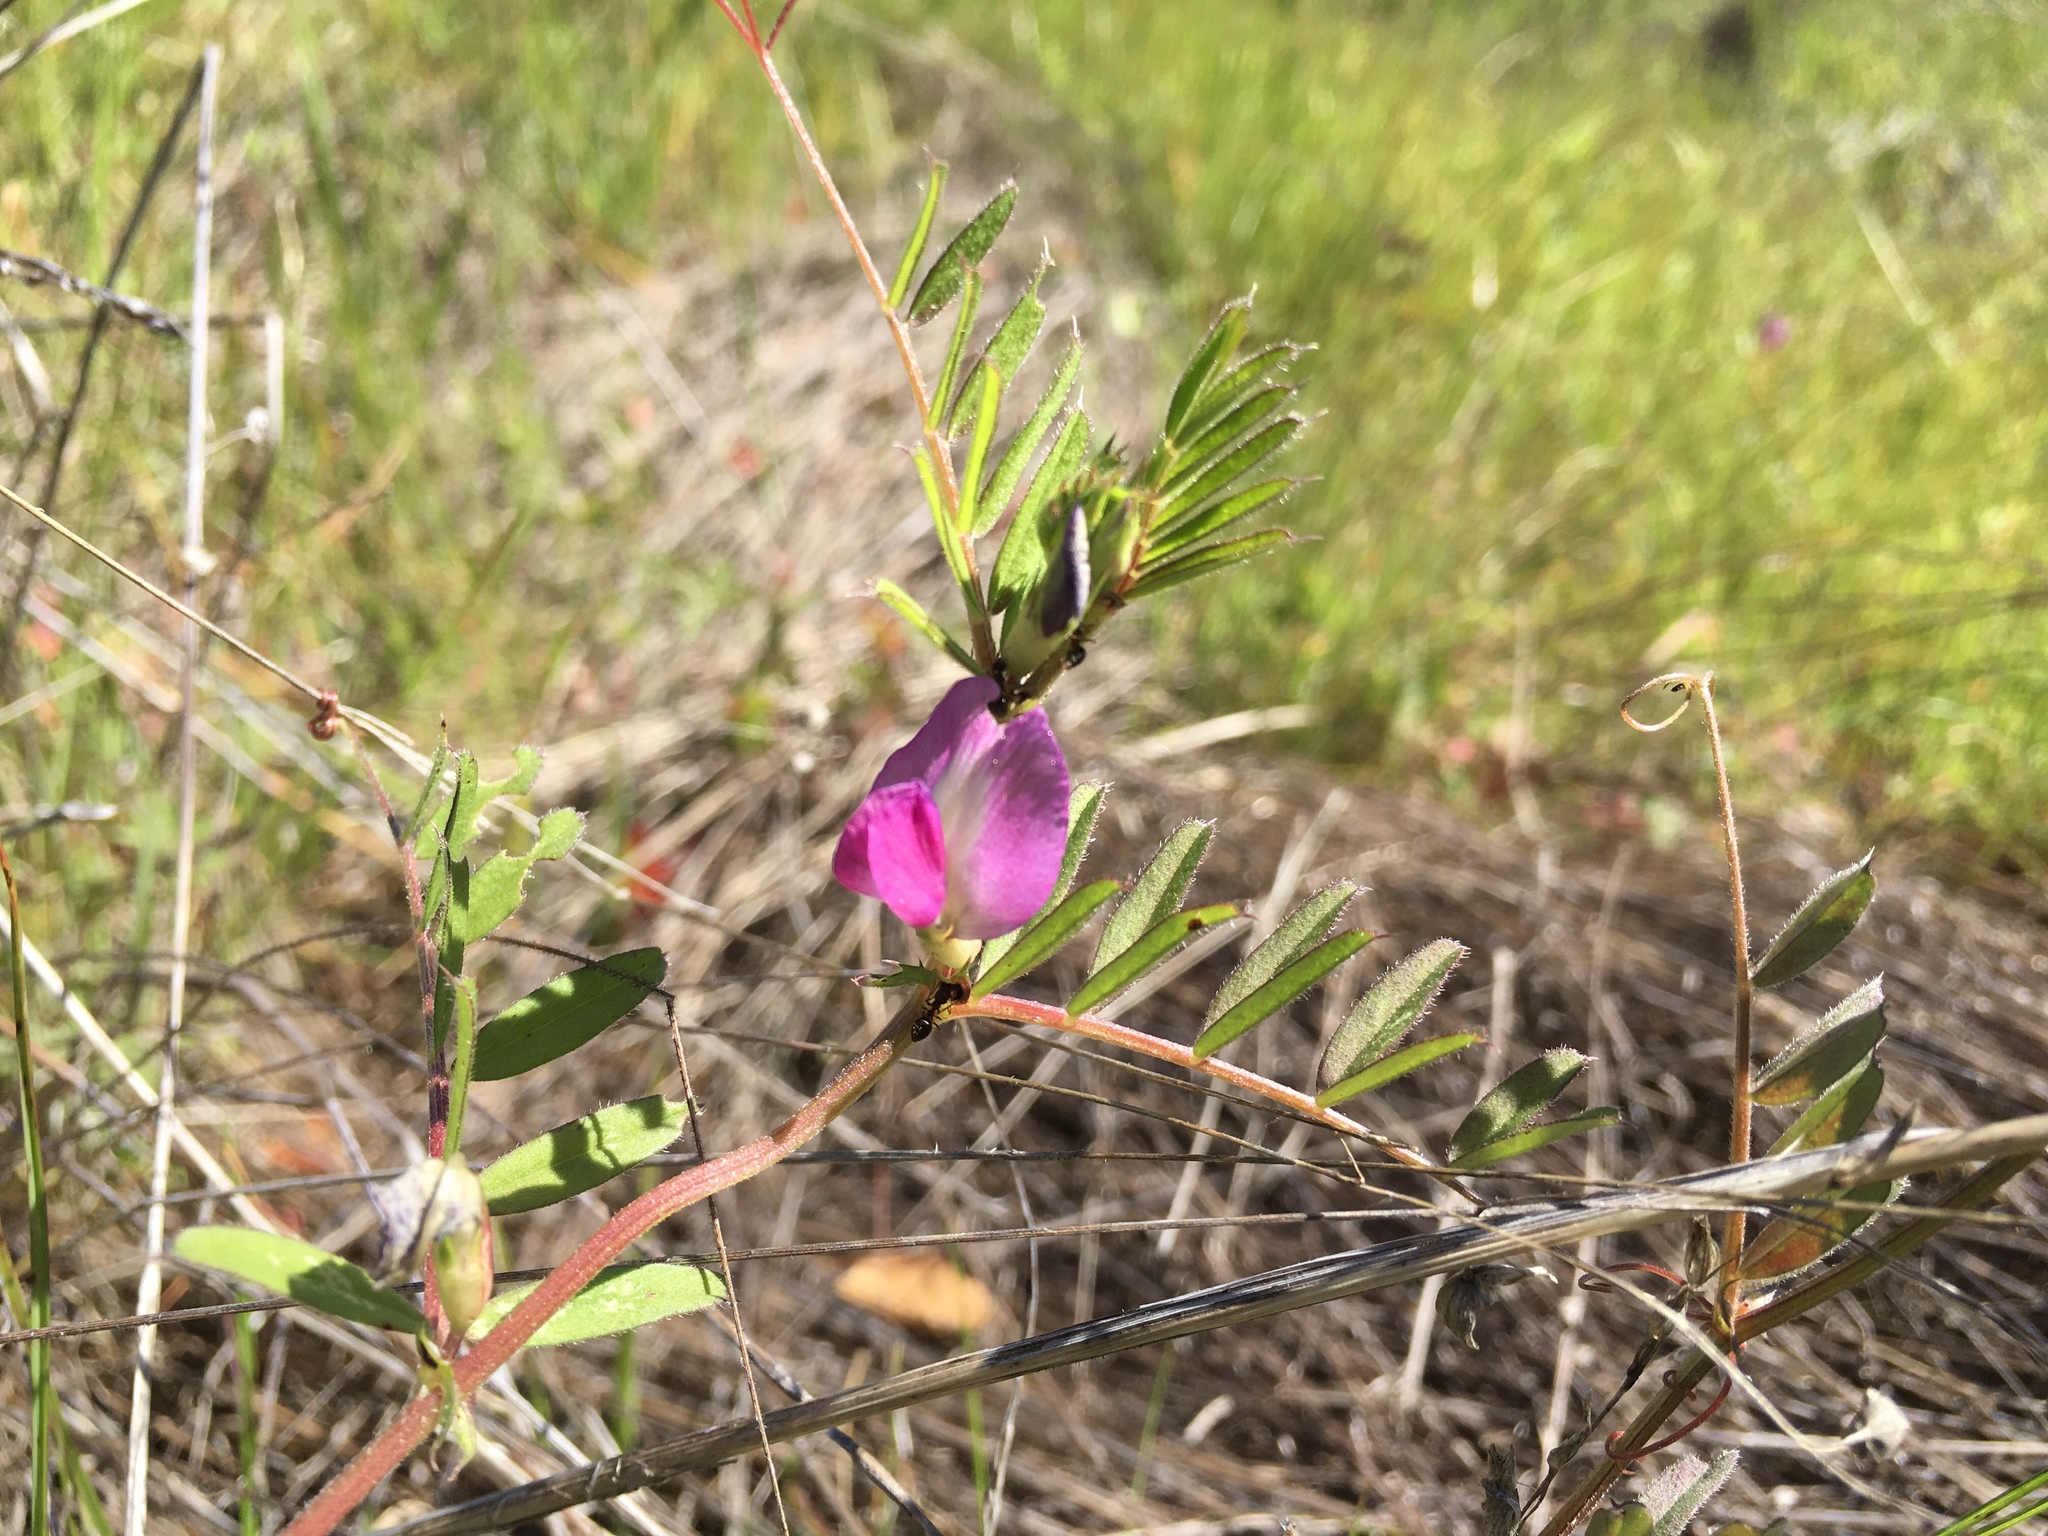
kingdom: Plantae
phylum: Tracheophyta
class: Magnoliopsida
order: Fabales
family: Fabaceae
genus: Vicia
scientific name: Vicia sativa
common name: Garden vetch
